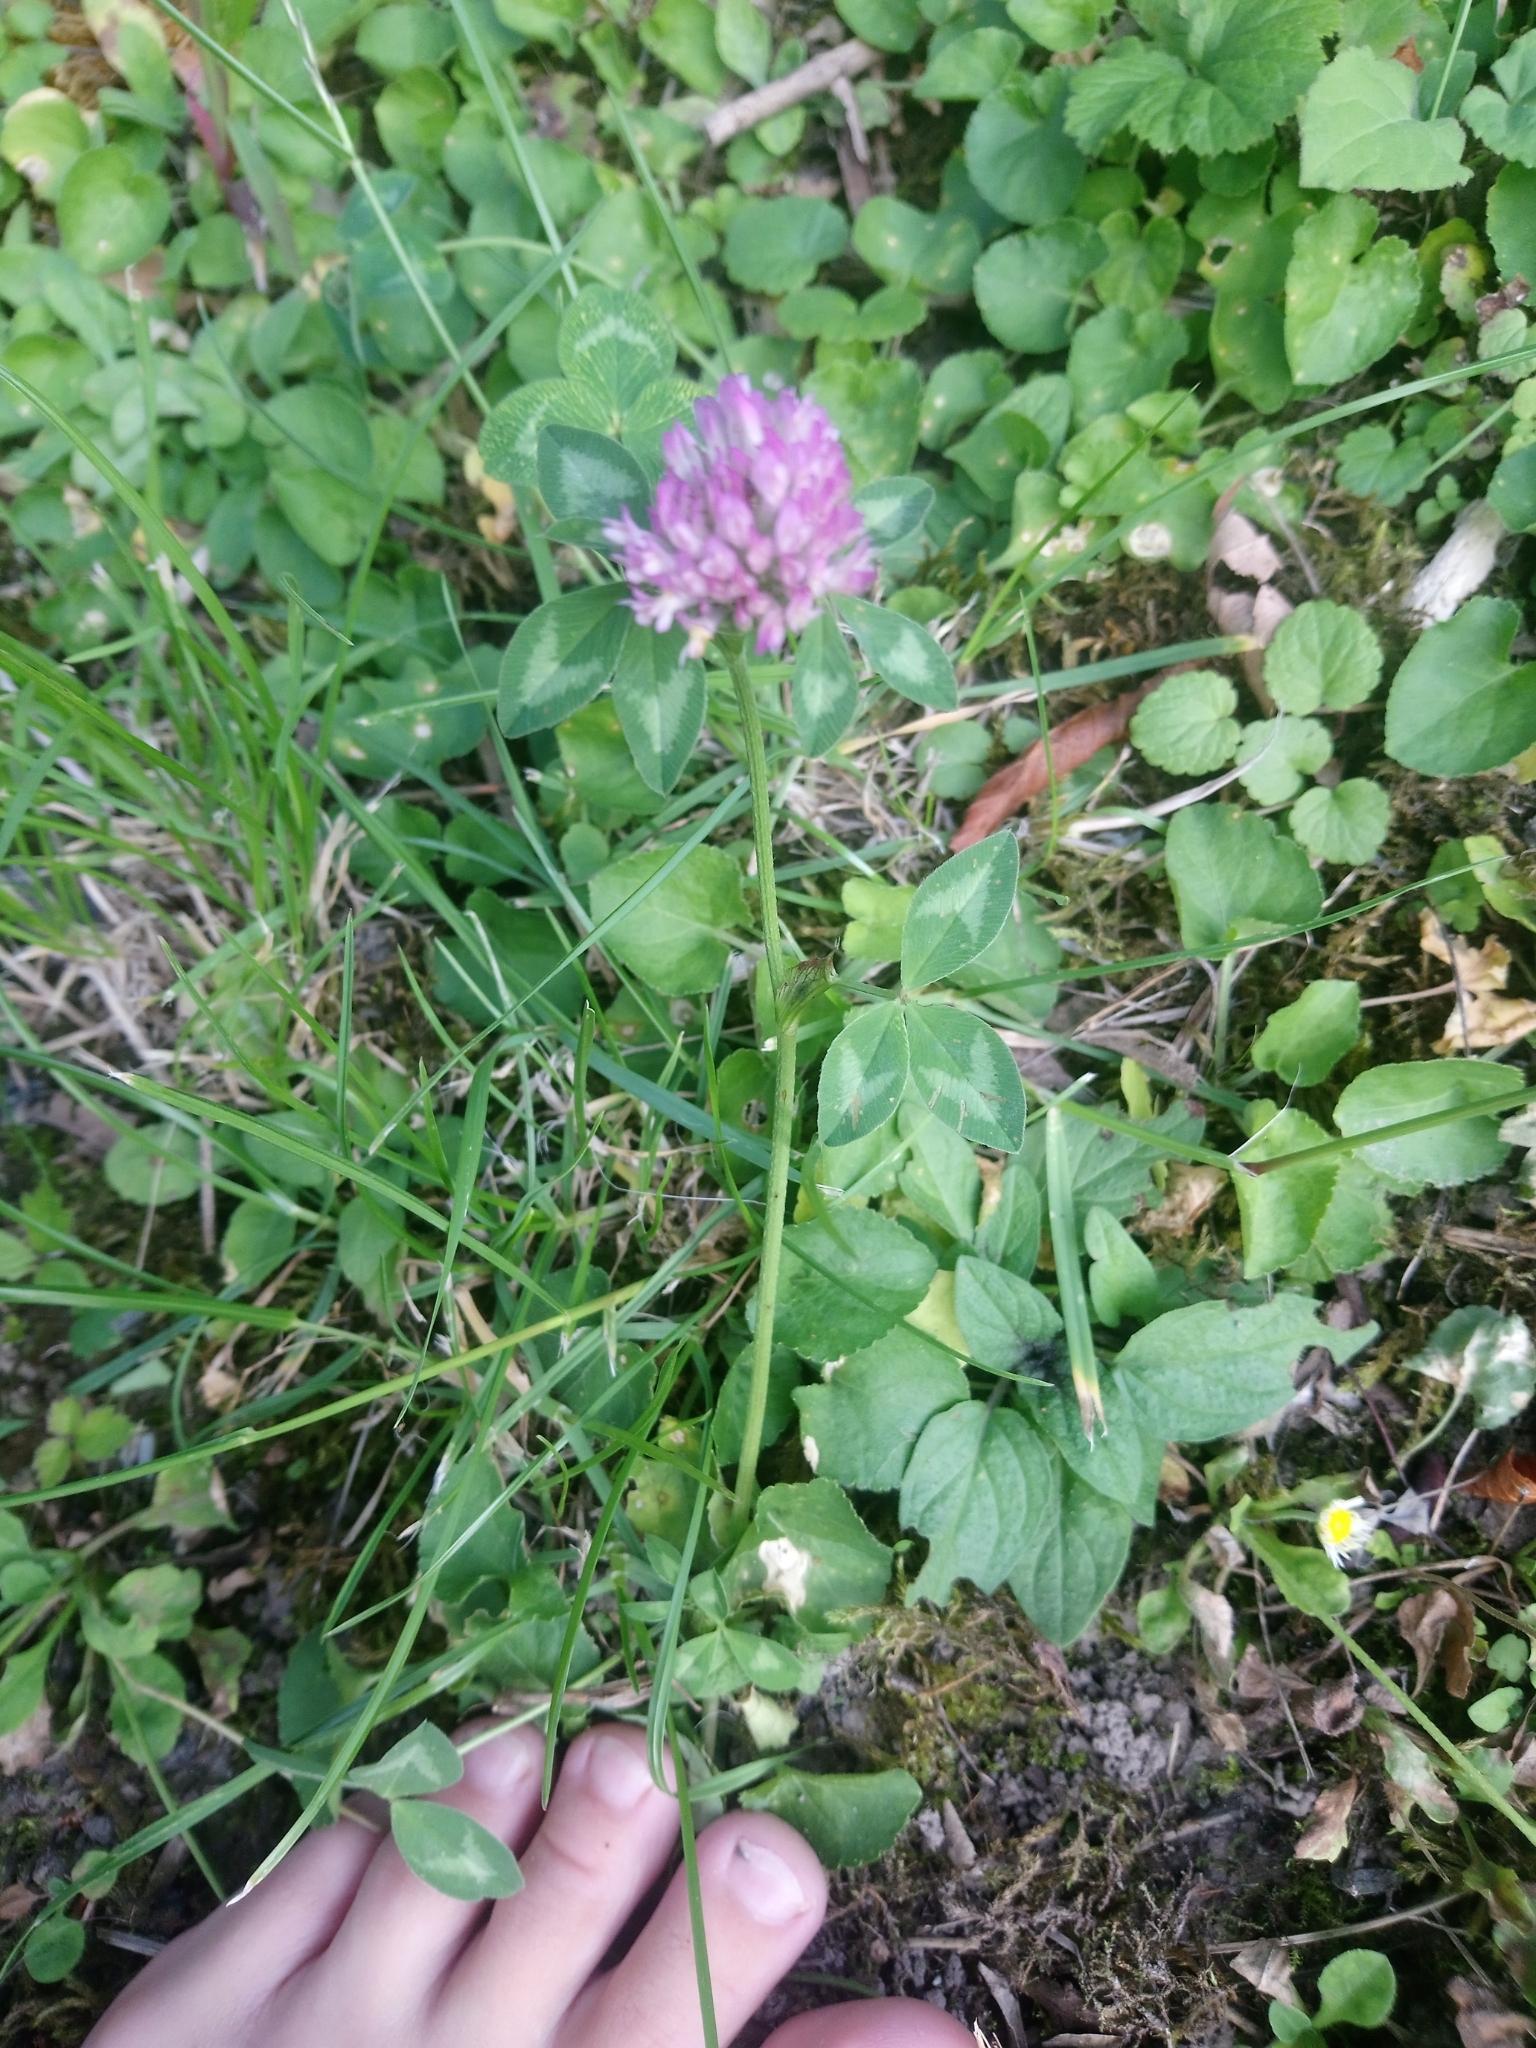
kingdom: Plantae
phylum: Tracheophyta
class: Magnoliopsida
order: Fabales
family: Fabaceae
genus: Trifolium
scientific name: Trifolium pratense
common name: Red clover
